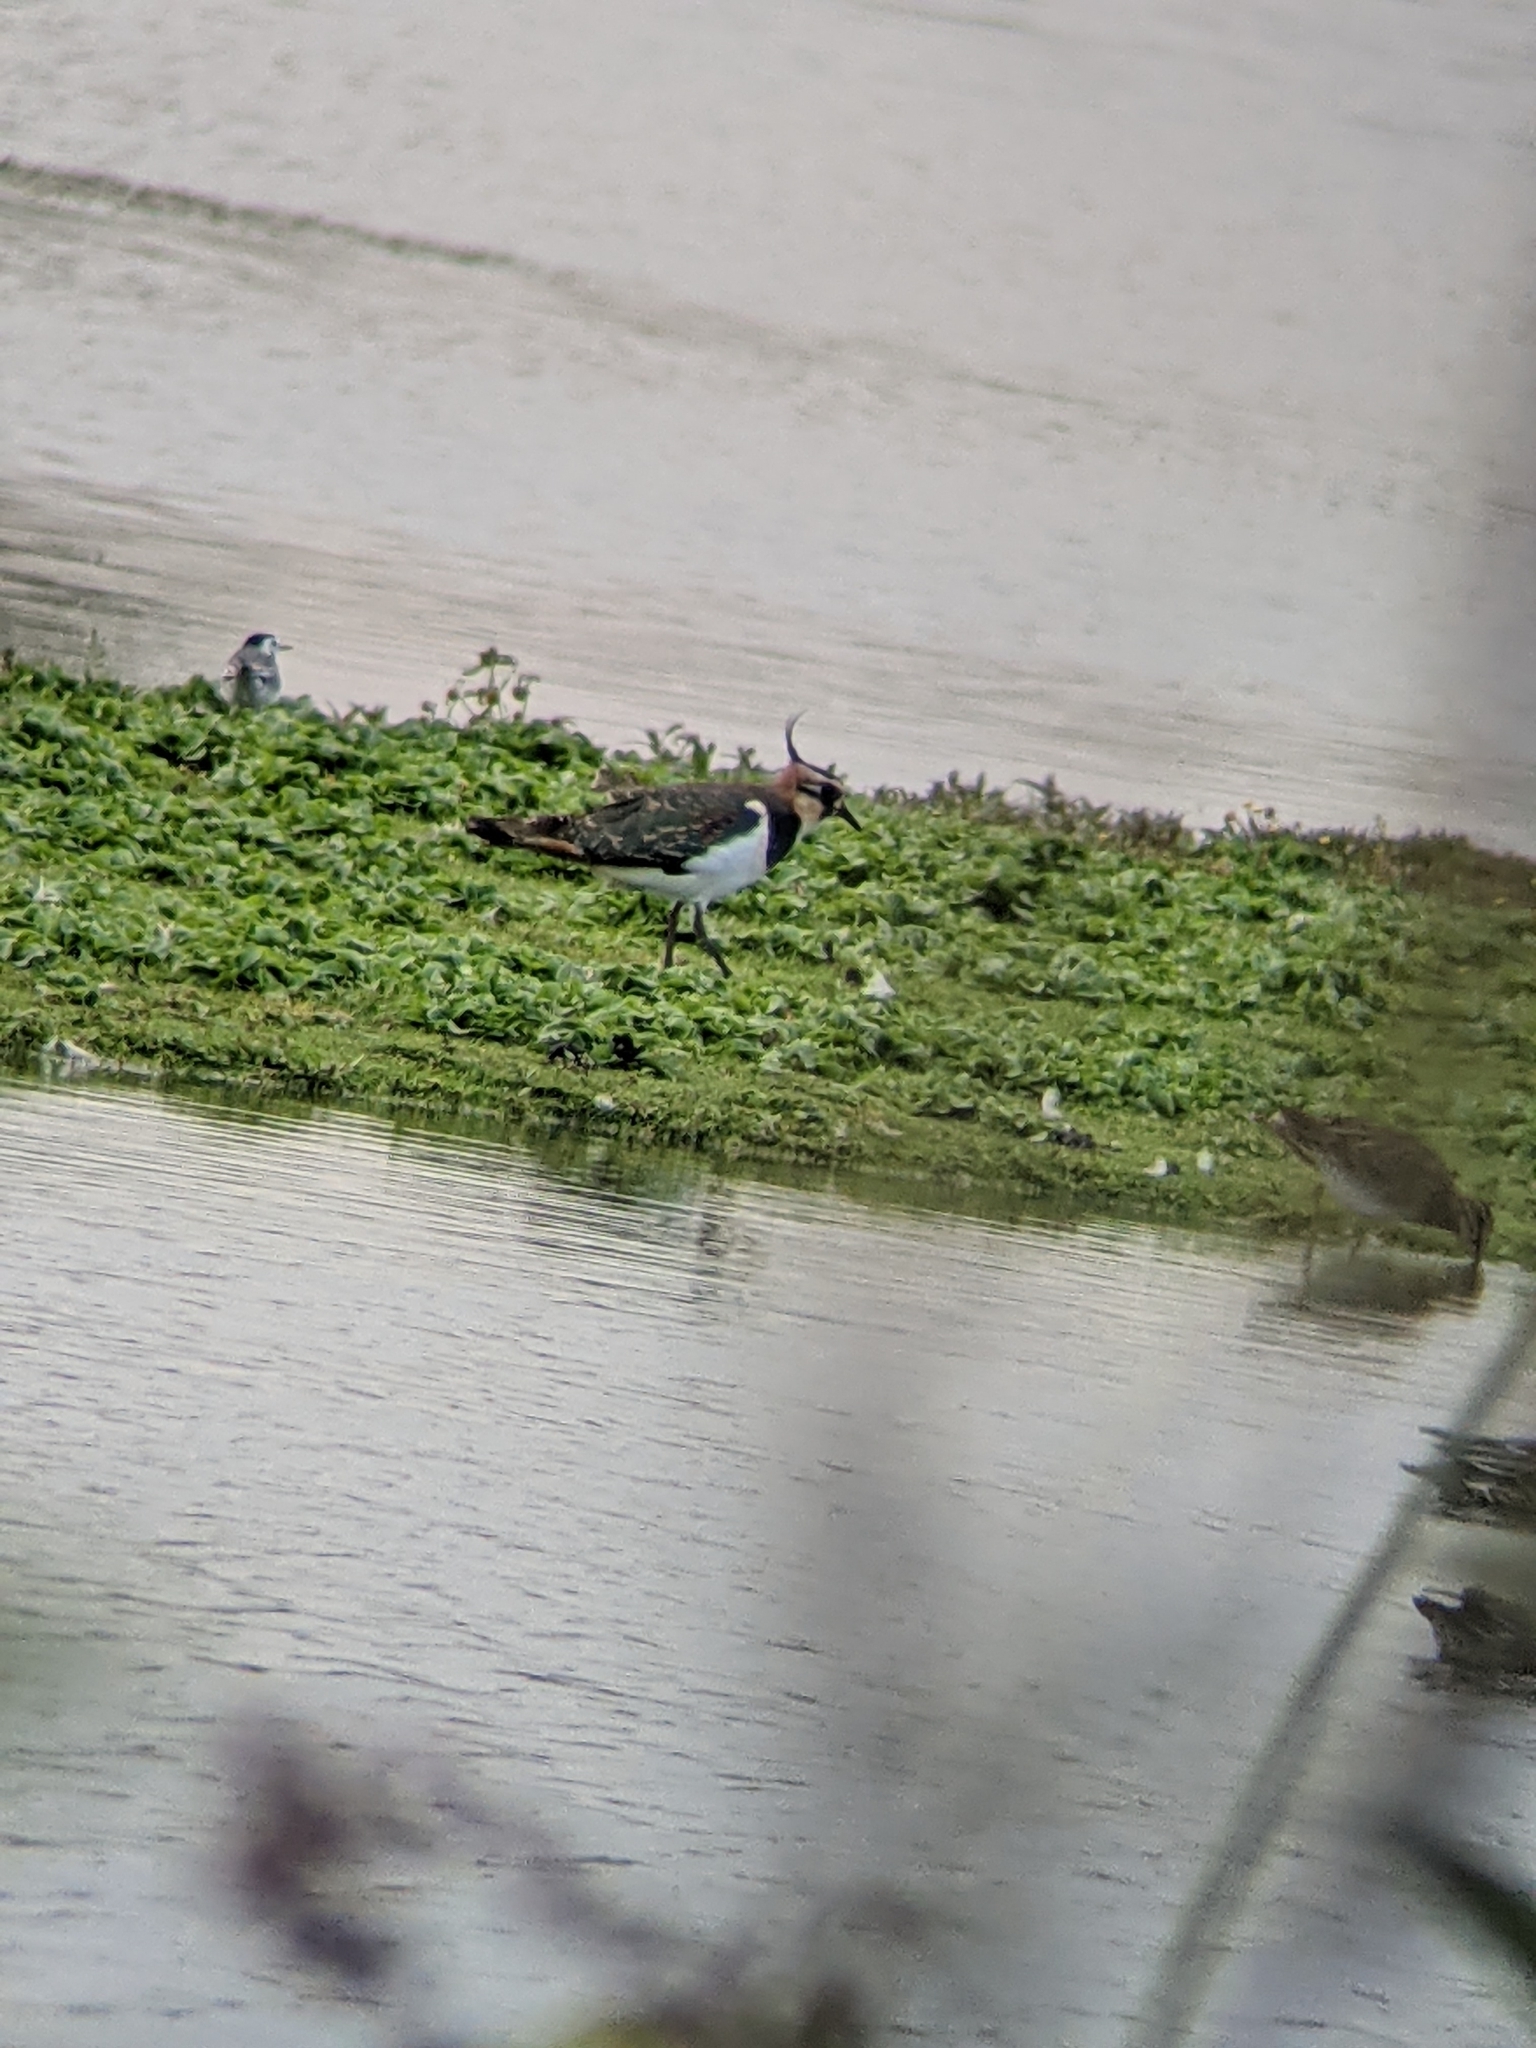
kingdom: Animalia
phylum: Chordata
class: Aves
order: Charadriiformes
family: Charadriidae
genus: Vanellus
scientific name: Vanellus vanellus
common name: Northern lapwing
